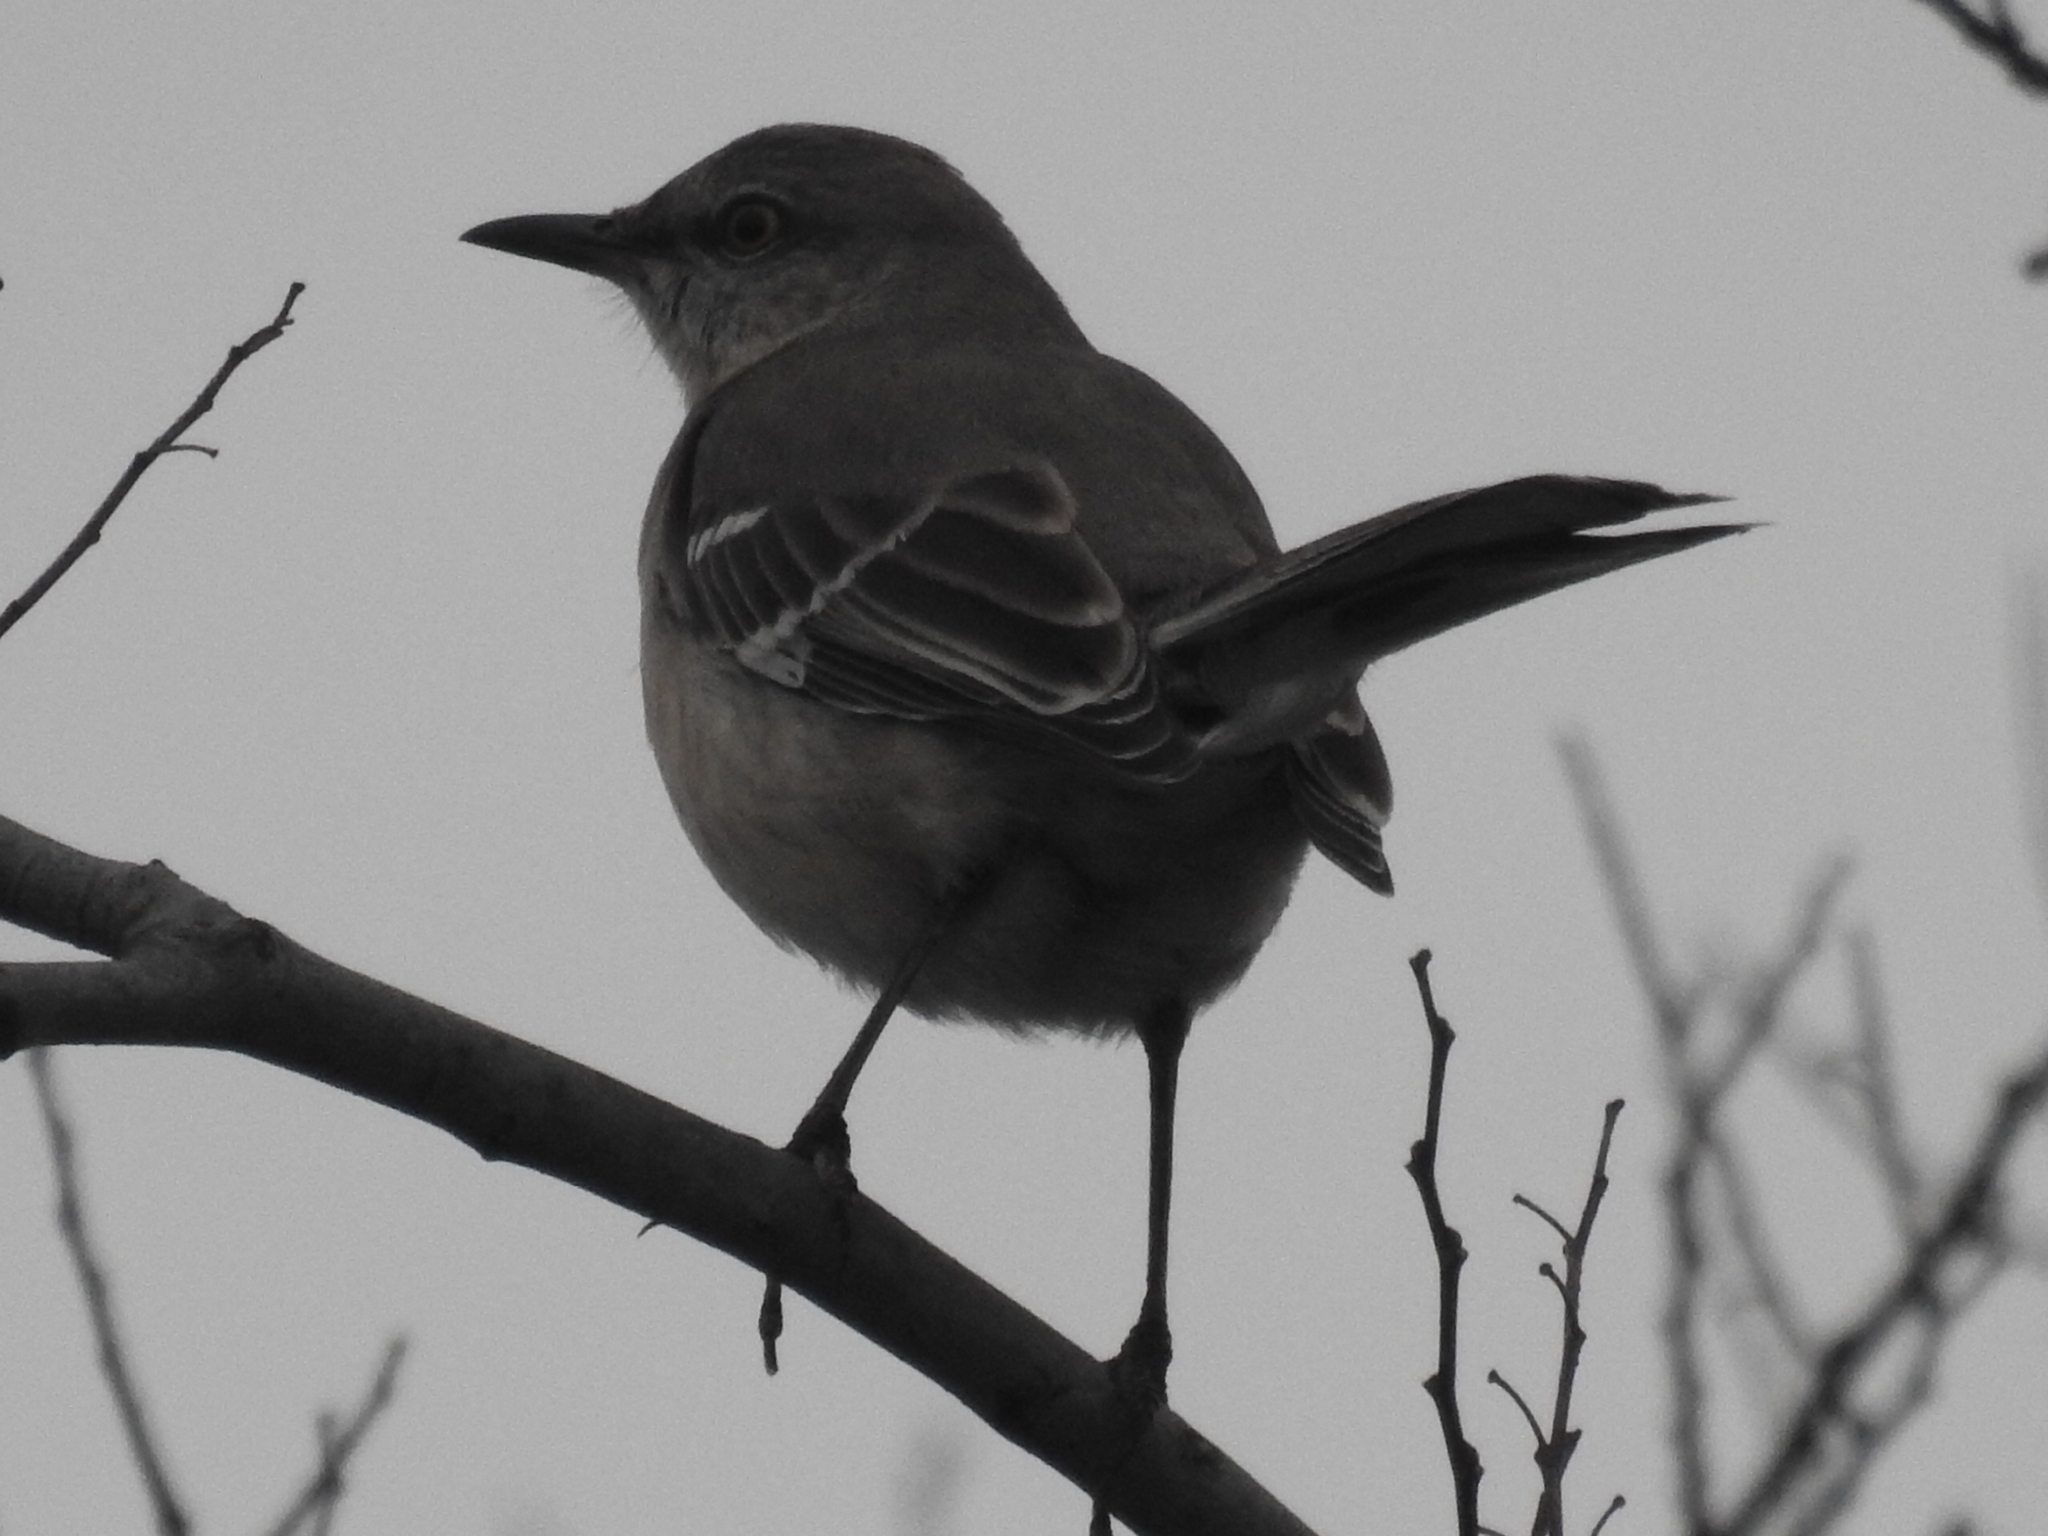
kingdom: Animalia
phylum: Chordata
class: Aves
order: Passeriformes
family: Mimidae
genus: Mimus
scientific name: Mimus polyglottos
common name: Northern mockingbird
